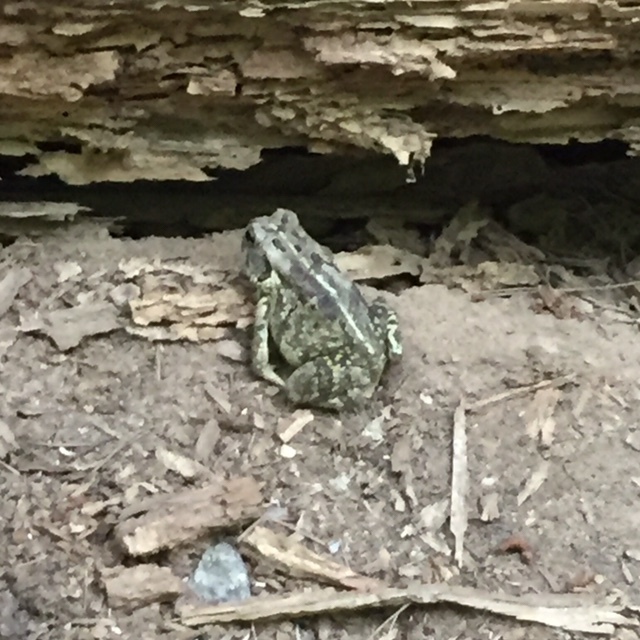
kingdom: Animalia
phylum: Chordata
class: Amphibia
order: Anura
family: Bufonidae
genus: Anaxyrus
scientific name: Anaxyrus fowleri
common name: Fowler's toad
